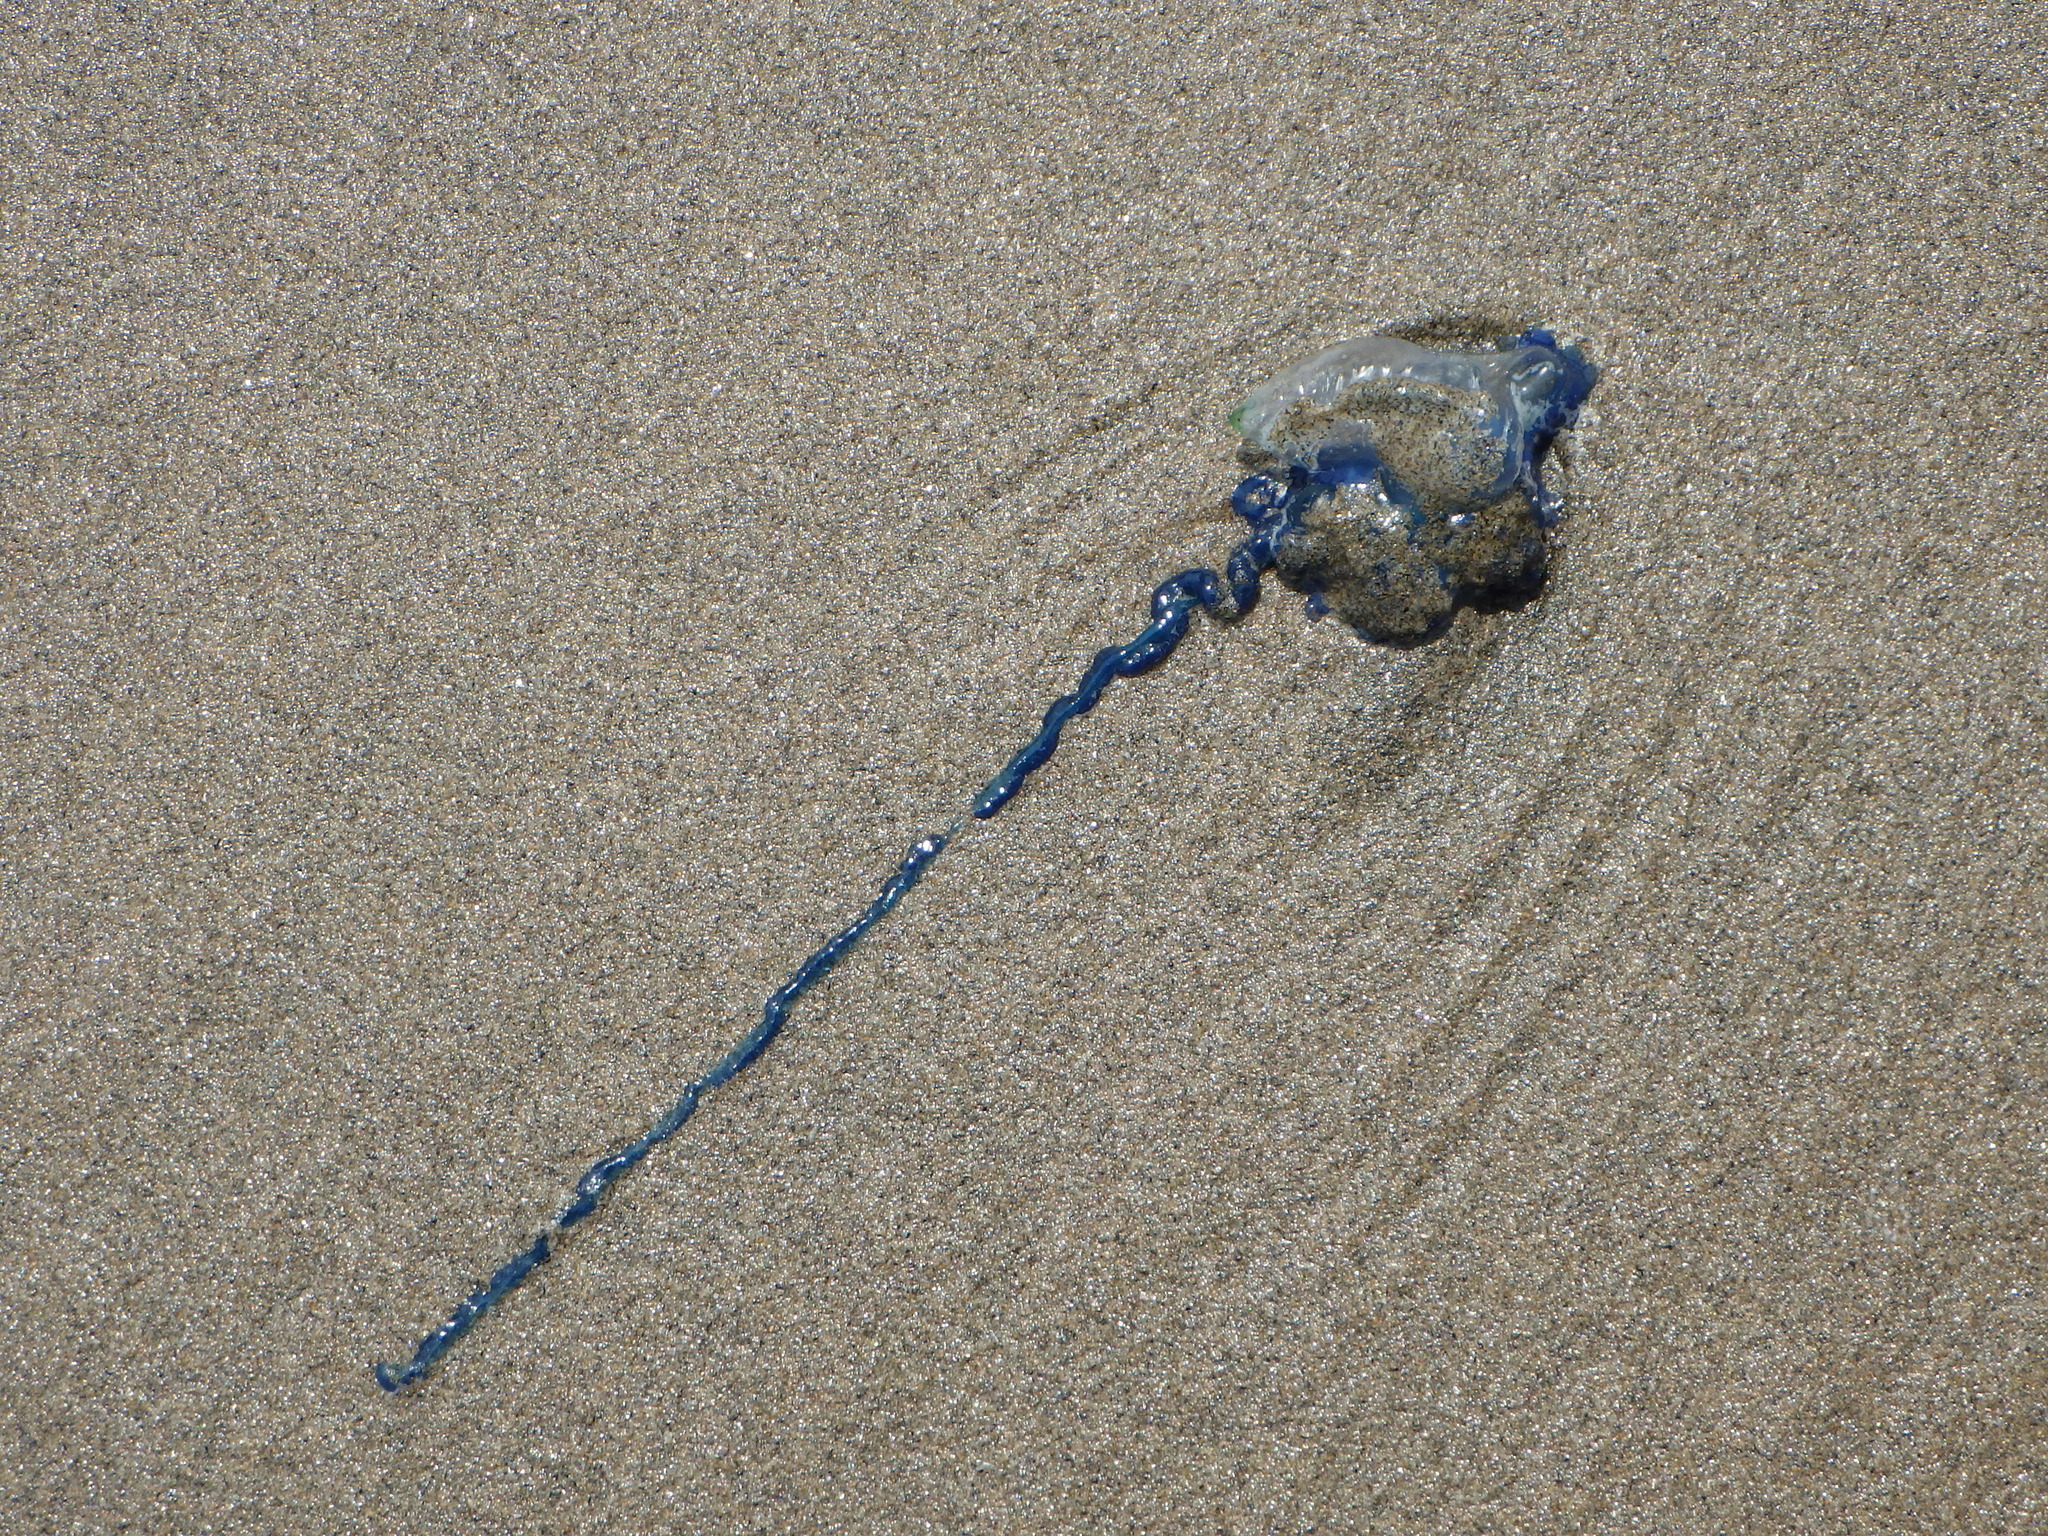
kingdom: Animalia
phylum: Cnidaria
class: Hydrozoa
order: Siphonophorae
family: Physaliidae
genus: Physalia
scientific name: Physalia physalis
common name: Portuguese man-of-war
